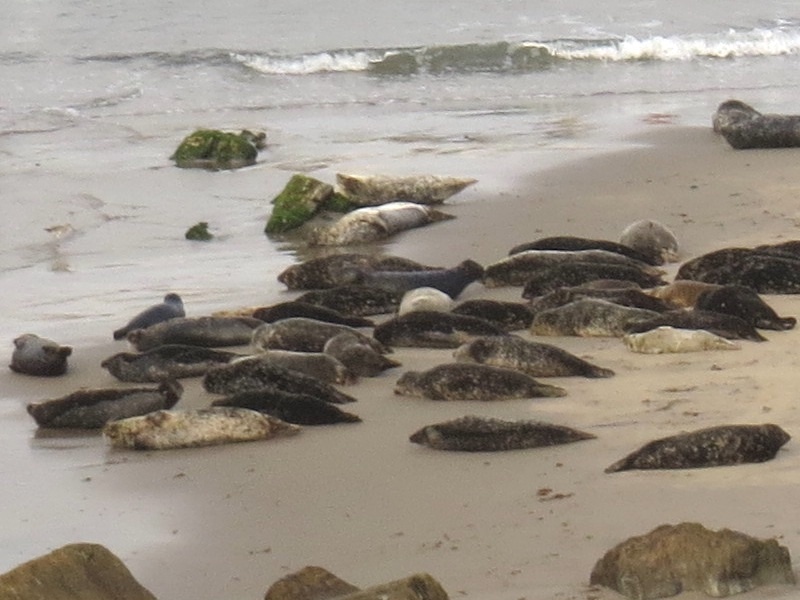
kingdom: Animalia
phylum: Chordata
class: Mammalia
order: Carnivora
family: Phocidae
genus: Phoca
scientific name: Phoca vitulina
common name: Harbor seal
